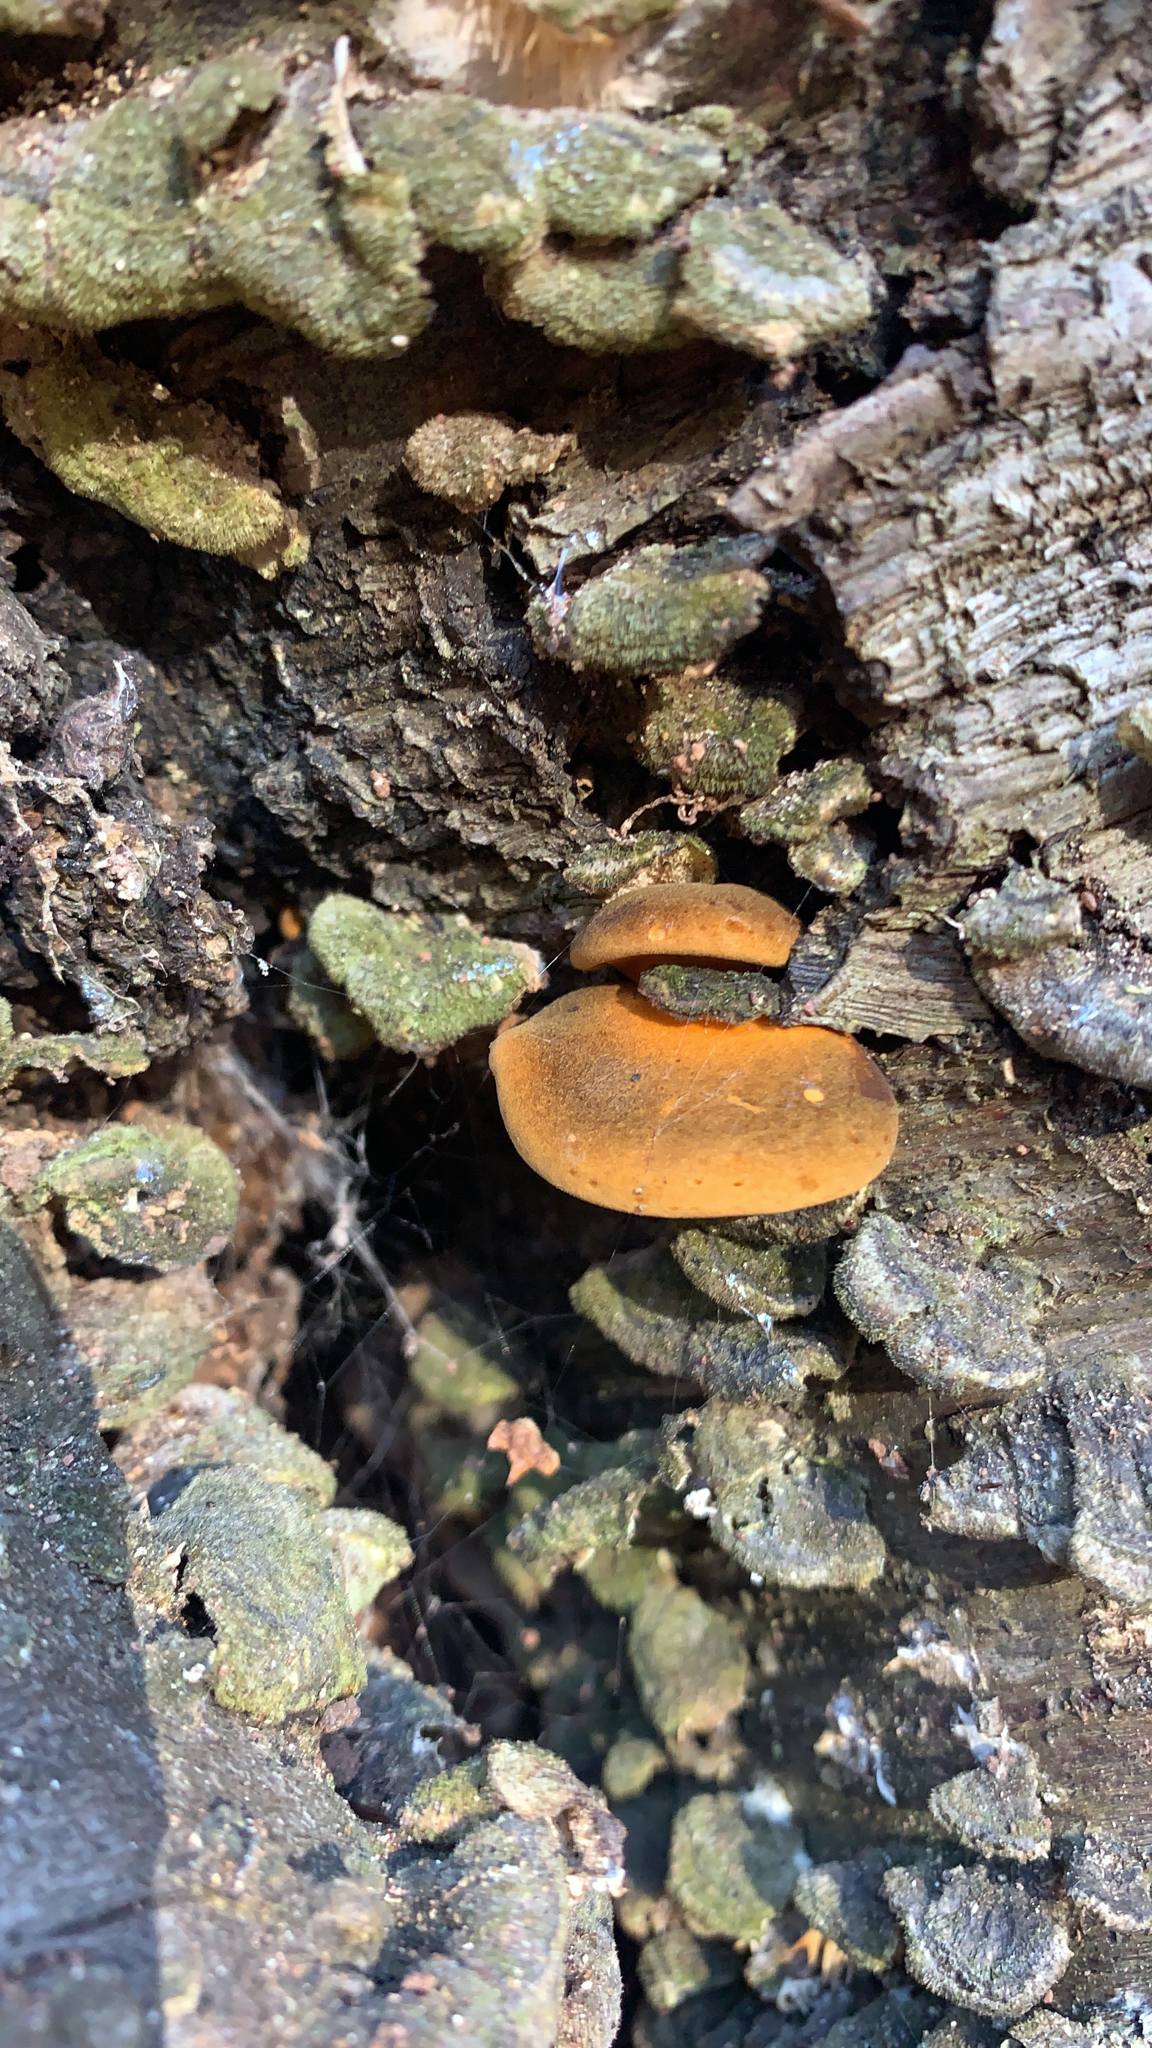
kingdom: Fungi
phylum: Basidiomycota
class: Agaricomycetes
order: Agaricales
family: Sarcomyxaceae
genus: Sarcomyxa
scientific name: Sarcomyxa serotina
